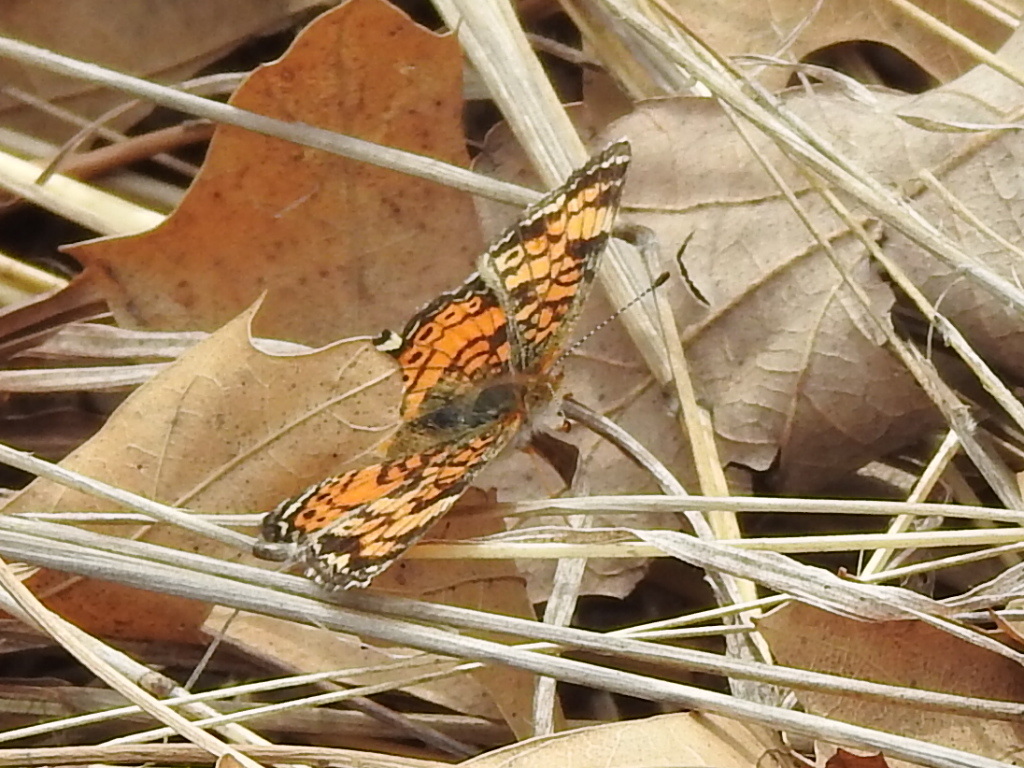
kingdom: Animalia
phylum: Arthropoda
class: Insecta
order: Lepidoptera
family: Nymphalidae
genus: Phyciodes
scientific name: Phyciodes tharos
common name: Pearl crescent
